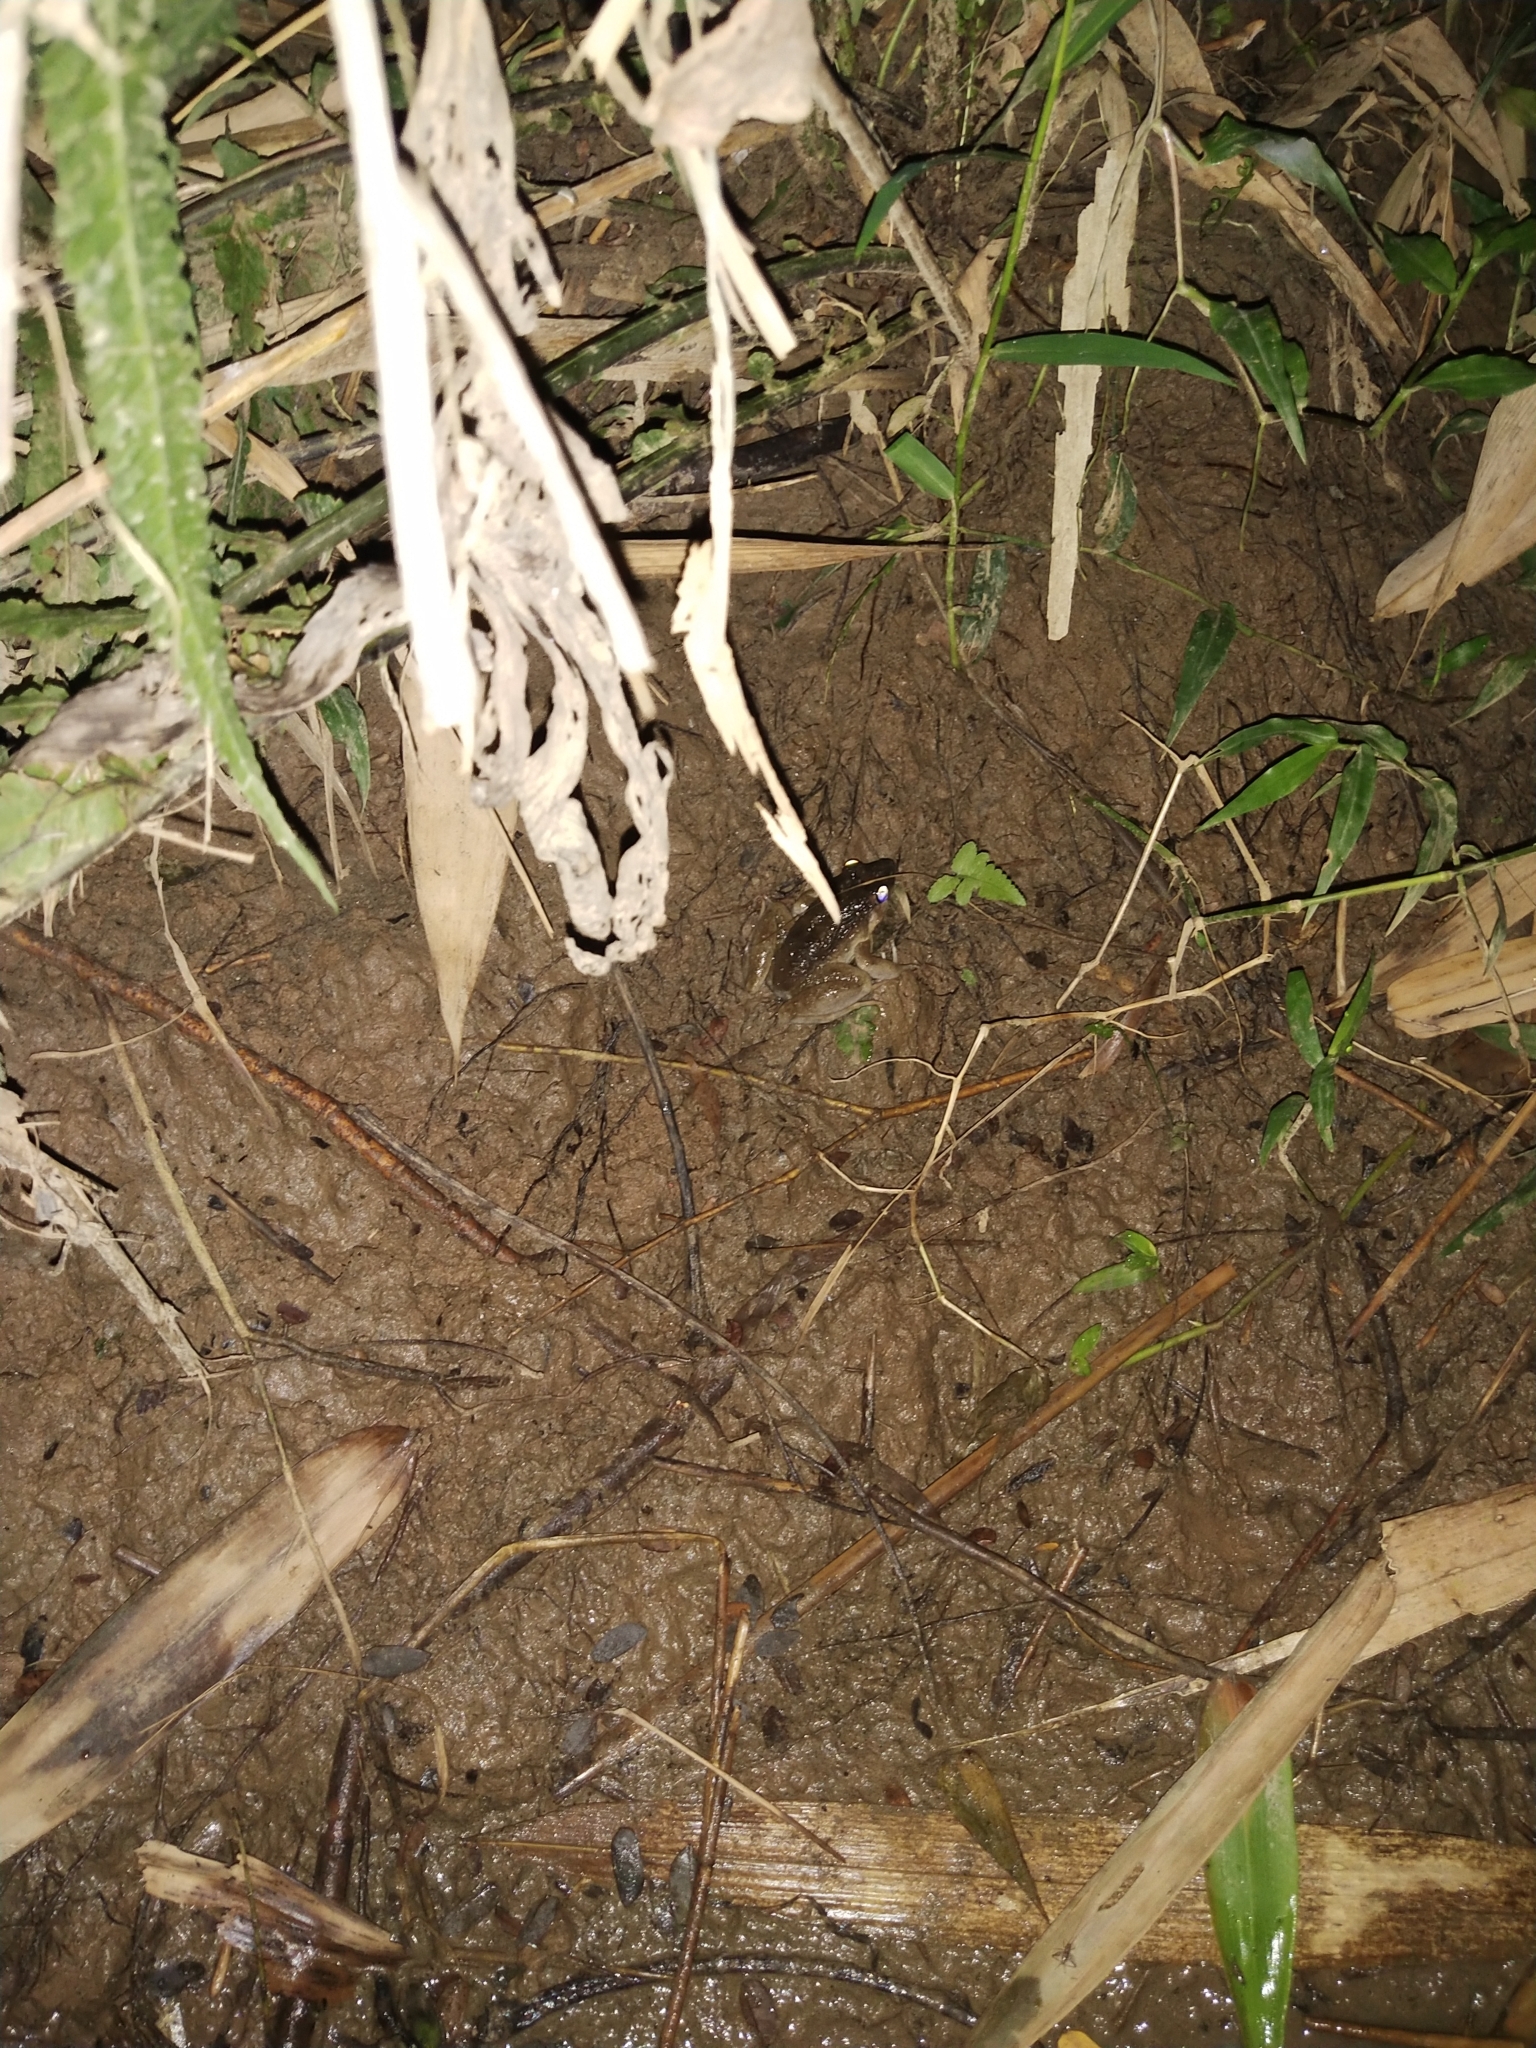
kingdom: Animalia
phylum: Chordata
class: Amphibia
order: Anura
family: Dicroglossidae
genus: Fejervarya
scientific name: Fejervarya vittigera
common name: Common pond frog
